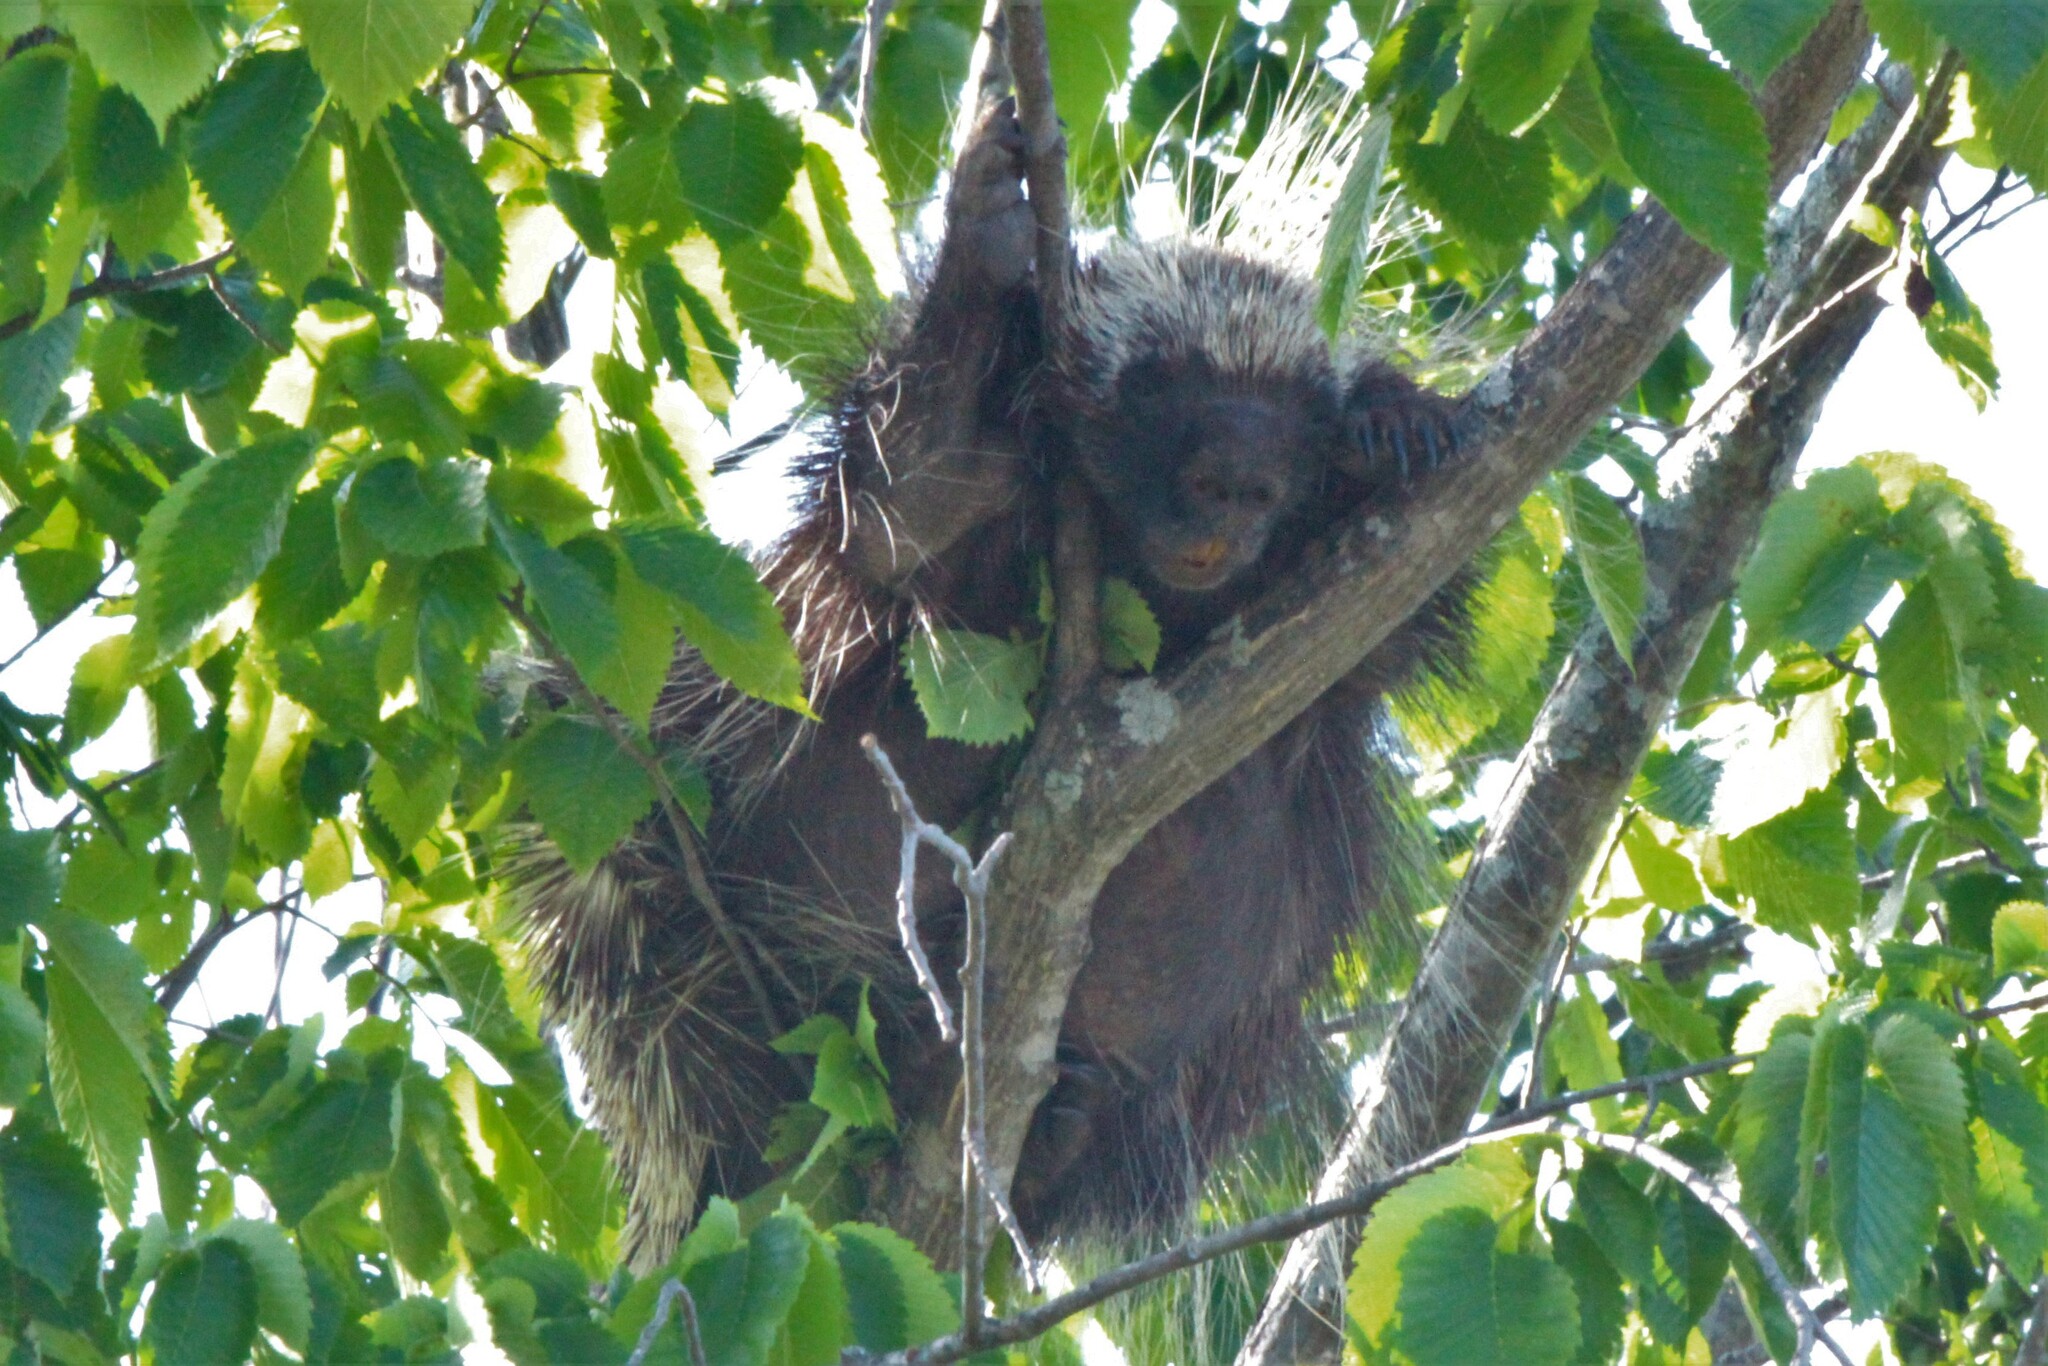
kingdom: Animalia
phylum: Chordata
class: Mammalia
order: Rodentia
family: Erethizontidae
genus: Erethizon
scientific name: Erethizon dorsatus
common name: North american porcupine
